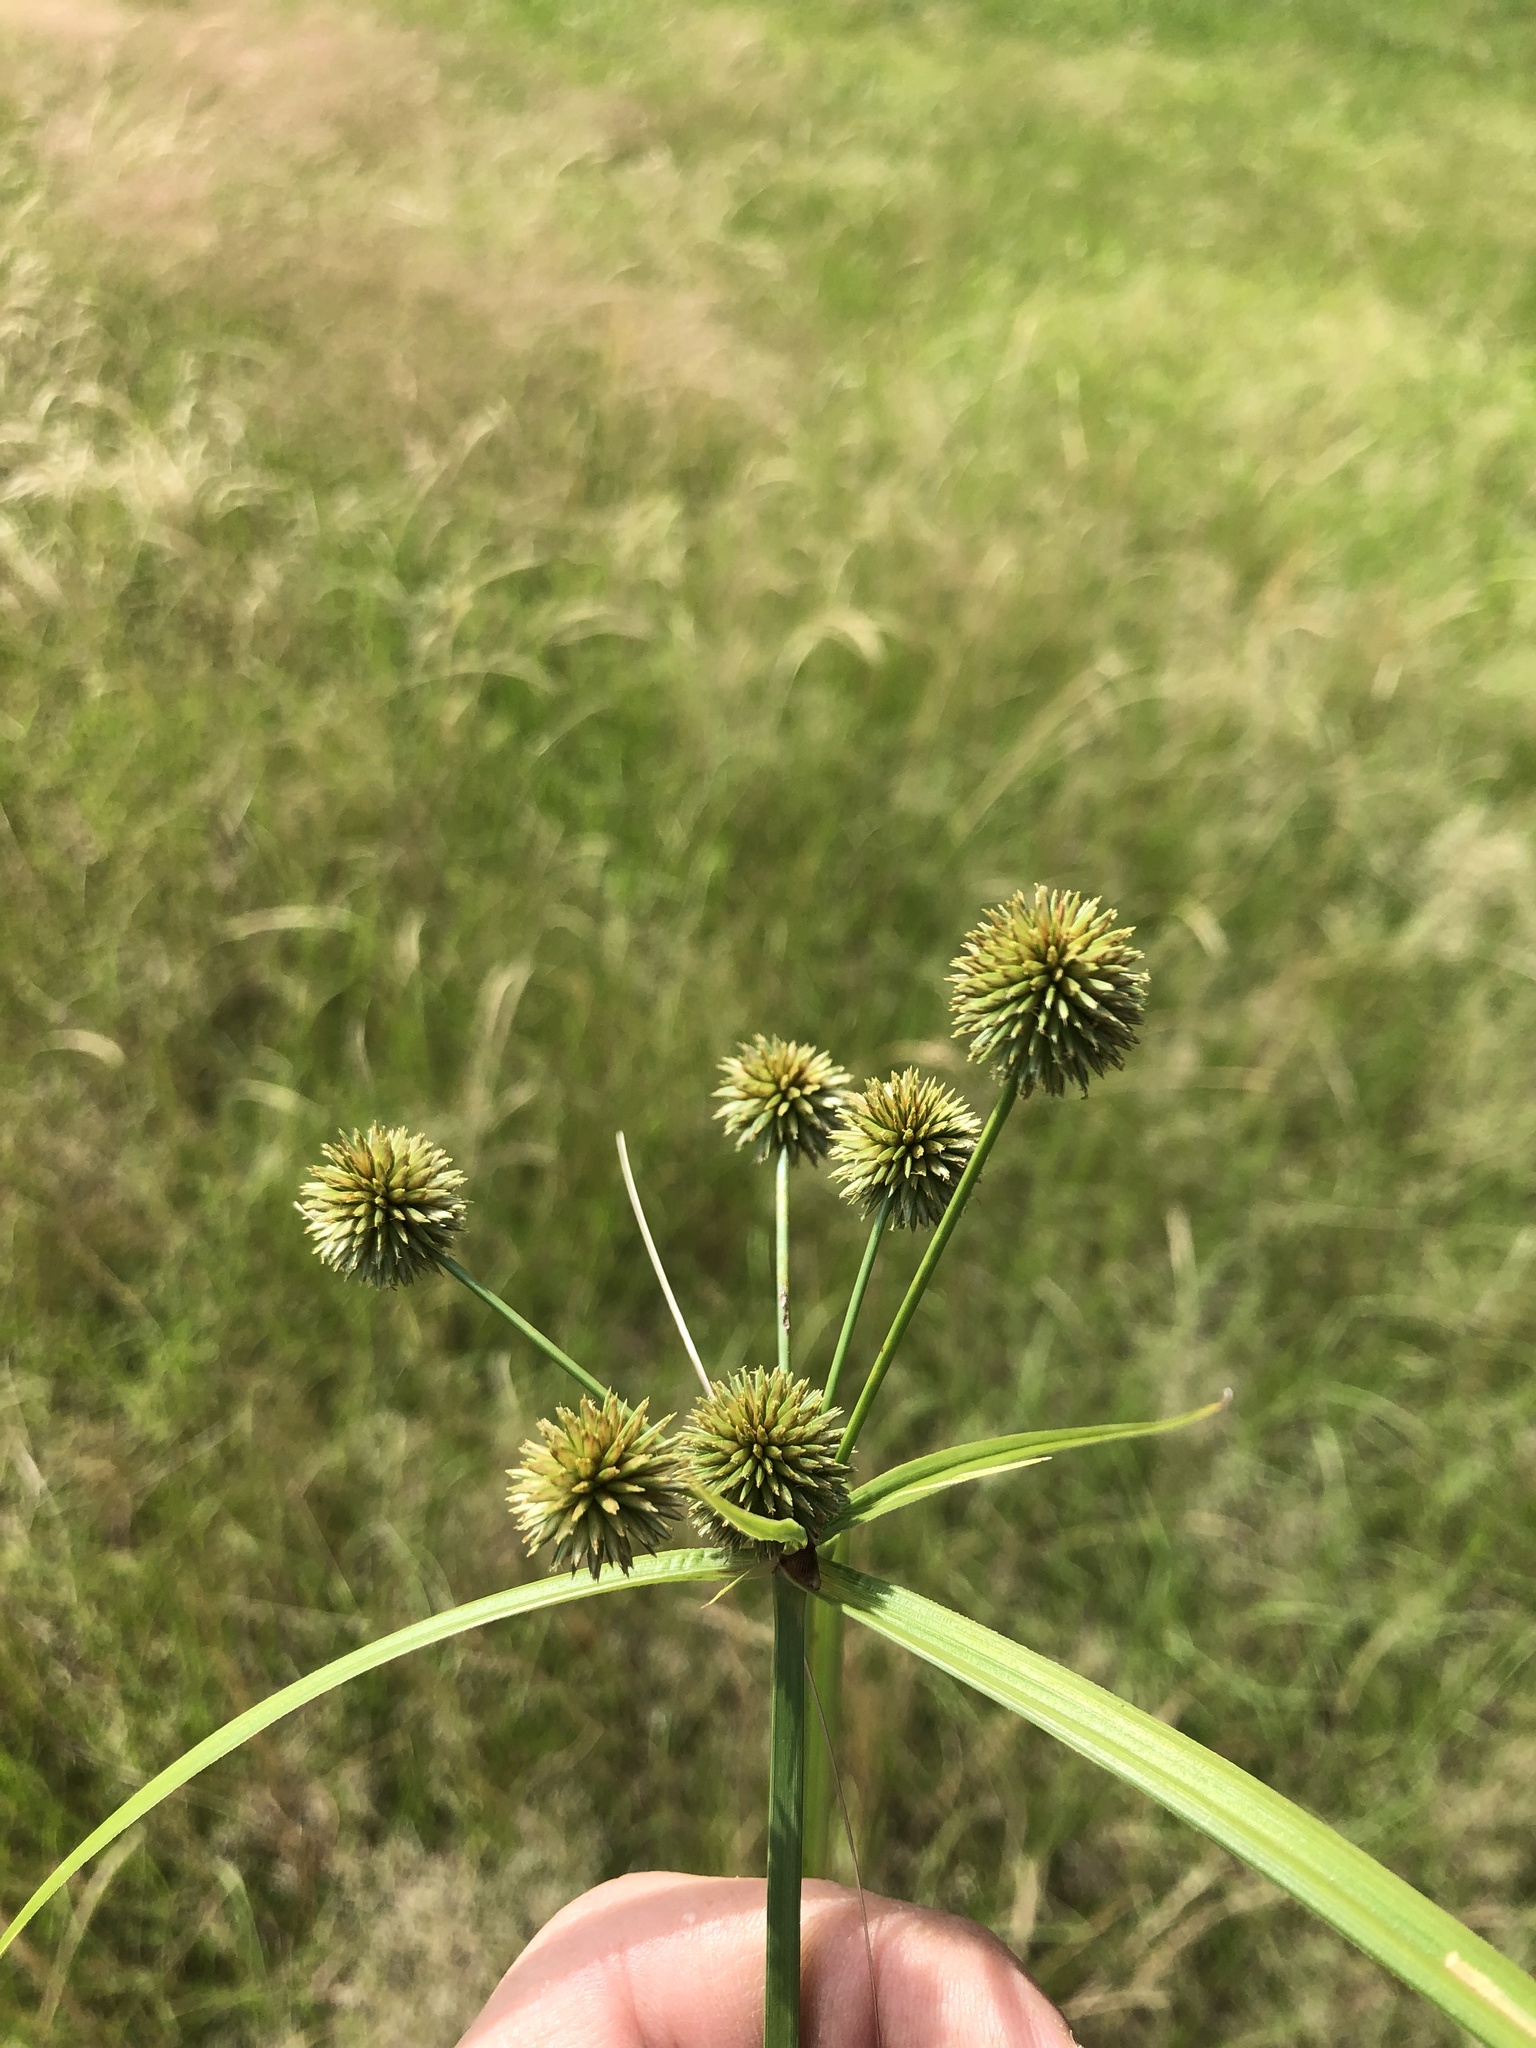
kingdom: Plantae
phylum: Tracheophyta
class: Liliopsida
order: Poales
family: Cyperaceae
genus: Cyperus
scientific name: Cyperus echinatus
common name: Teasel sedge
